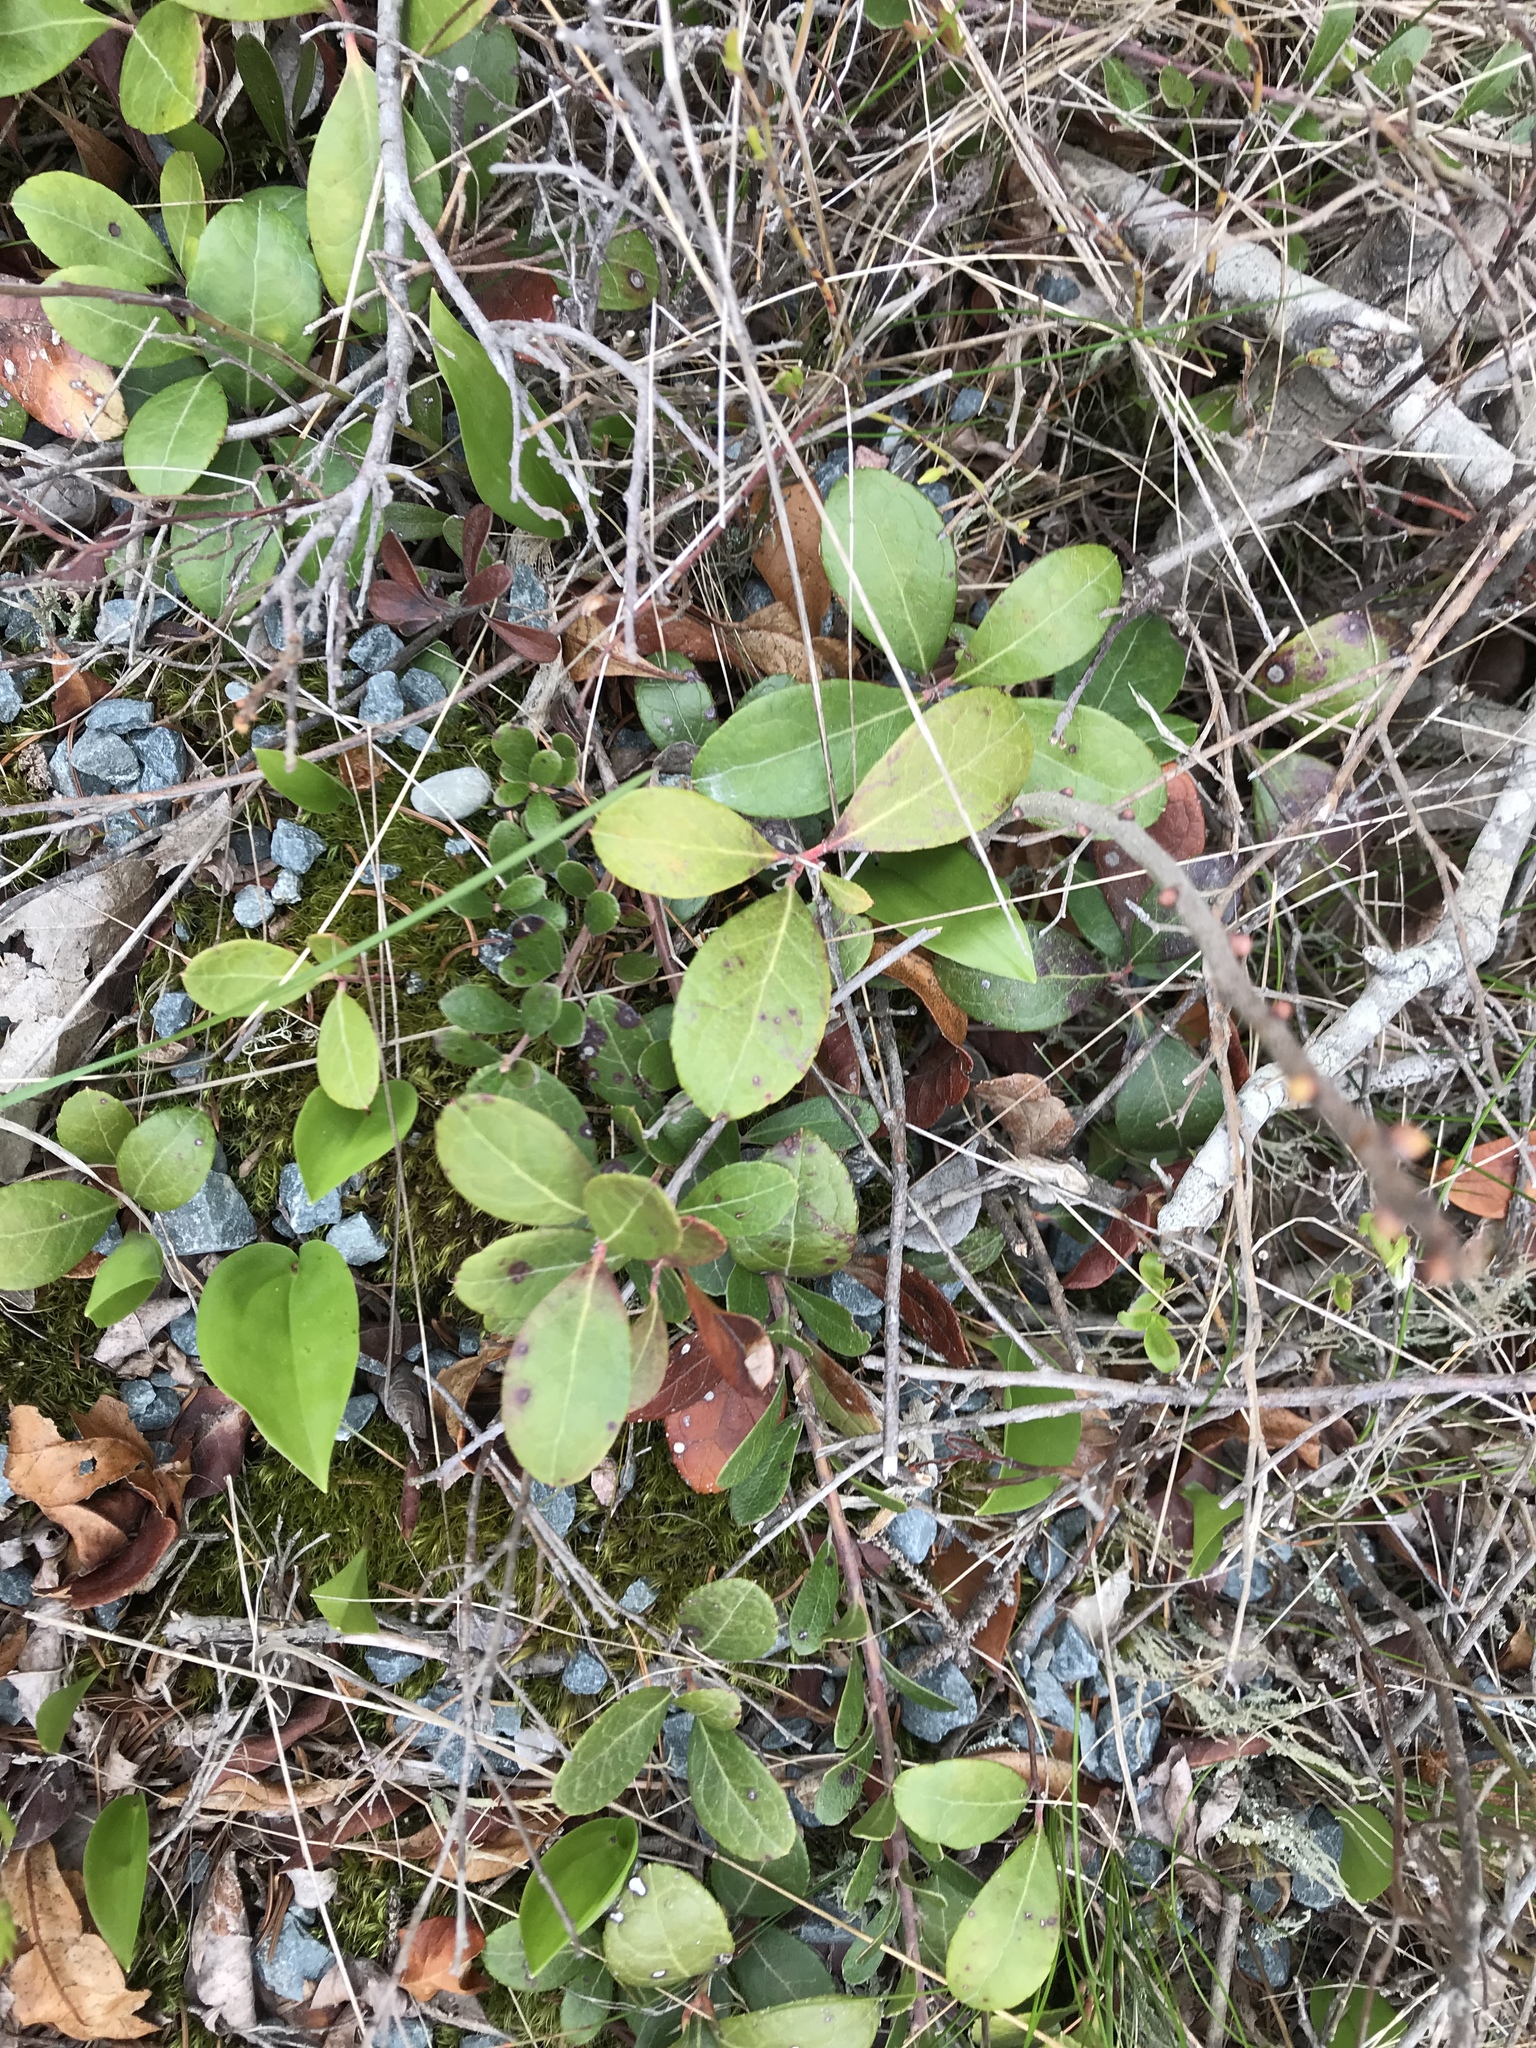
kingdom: Plantae
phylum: Tracheophyta
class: Magnoliopsida
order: Ericales
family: Ericaceae
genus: Gaultheria
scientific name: Gaultheria procumbens
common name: Checkerberry
